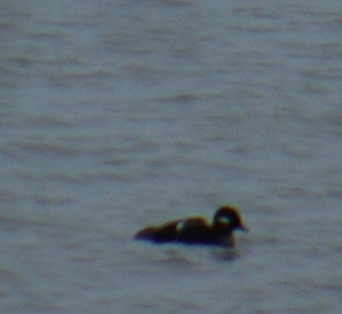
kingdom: Animalia
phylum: Chordata
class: Aves
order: Anseriformes
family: Anatidae
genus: Bucephala
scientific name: Bucephala clangula
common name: Common goldeneye
